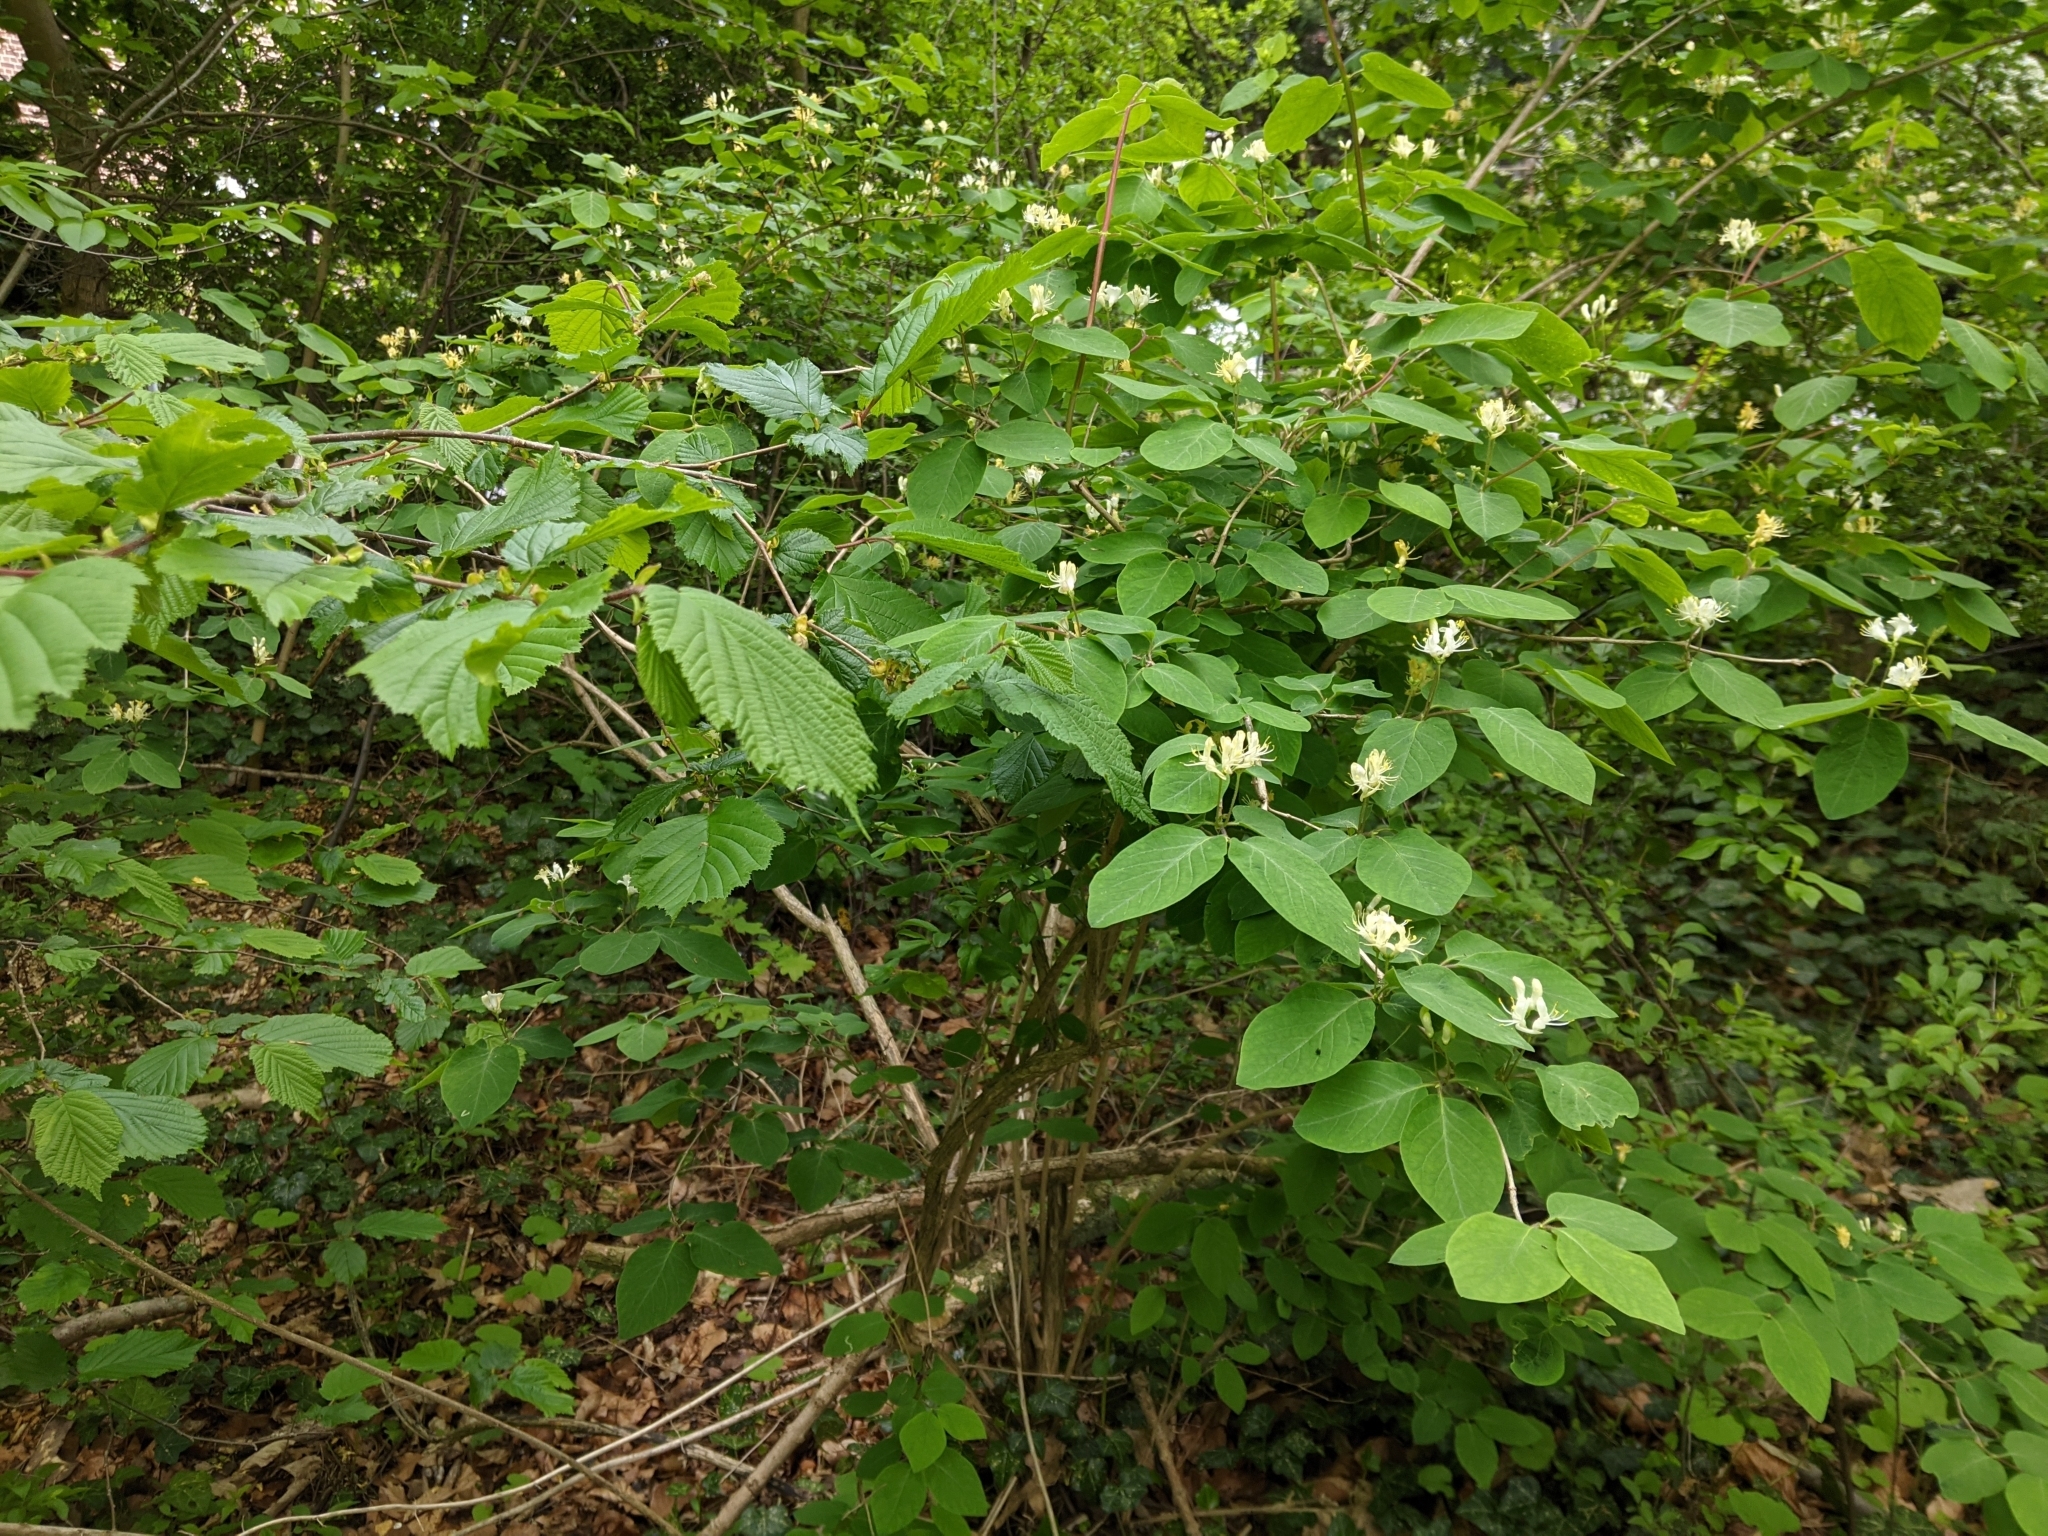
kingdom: Plantae
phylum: Tracheophyta
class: Magnoliopsida
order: Dipsacales
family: Caprifoliaceae
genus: Lonicera
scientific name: Lonicera xylosteum
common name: Fly honeysuckle
